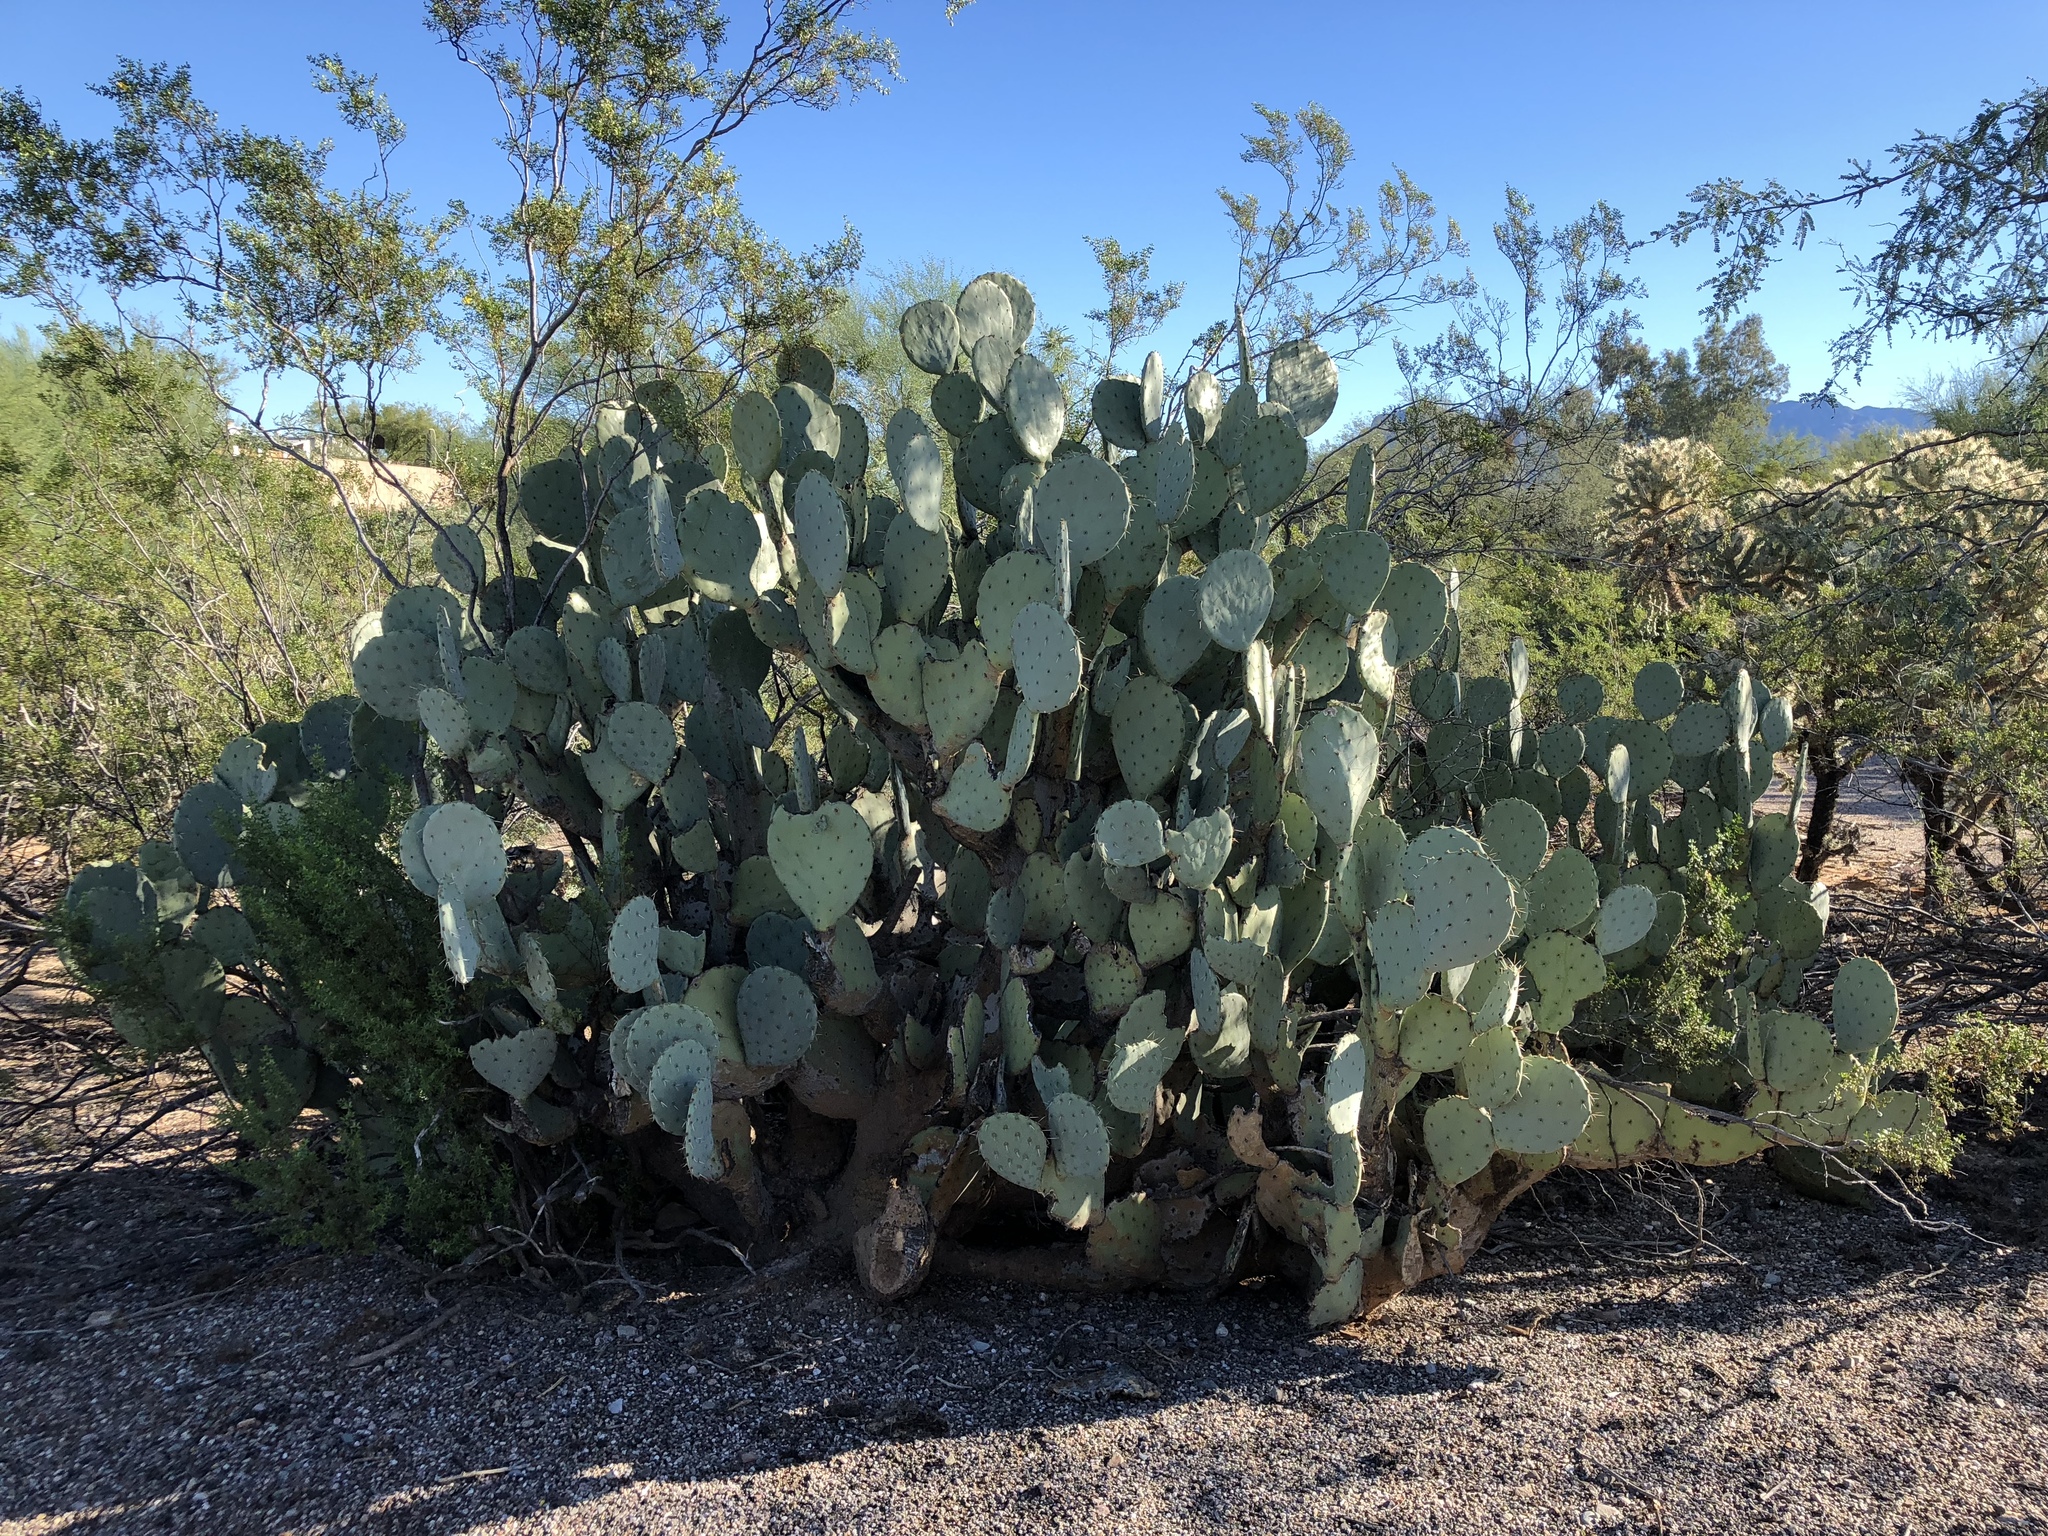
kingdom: Plantae
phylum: Tracheophyta
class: Magnoliopsida
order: Caryophyllales
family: Cactaceae
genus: Opuntia
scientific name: Opuntia engelmannii
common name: Cactus-apple
